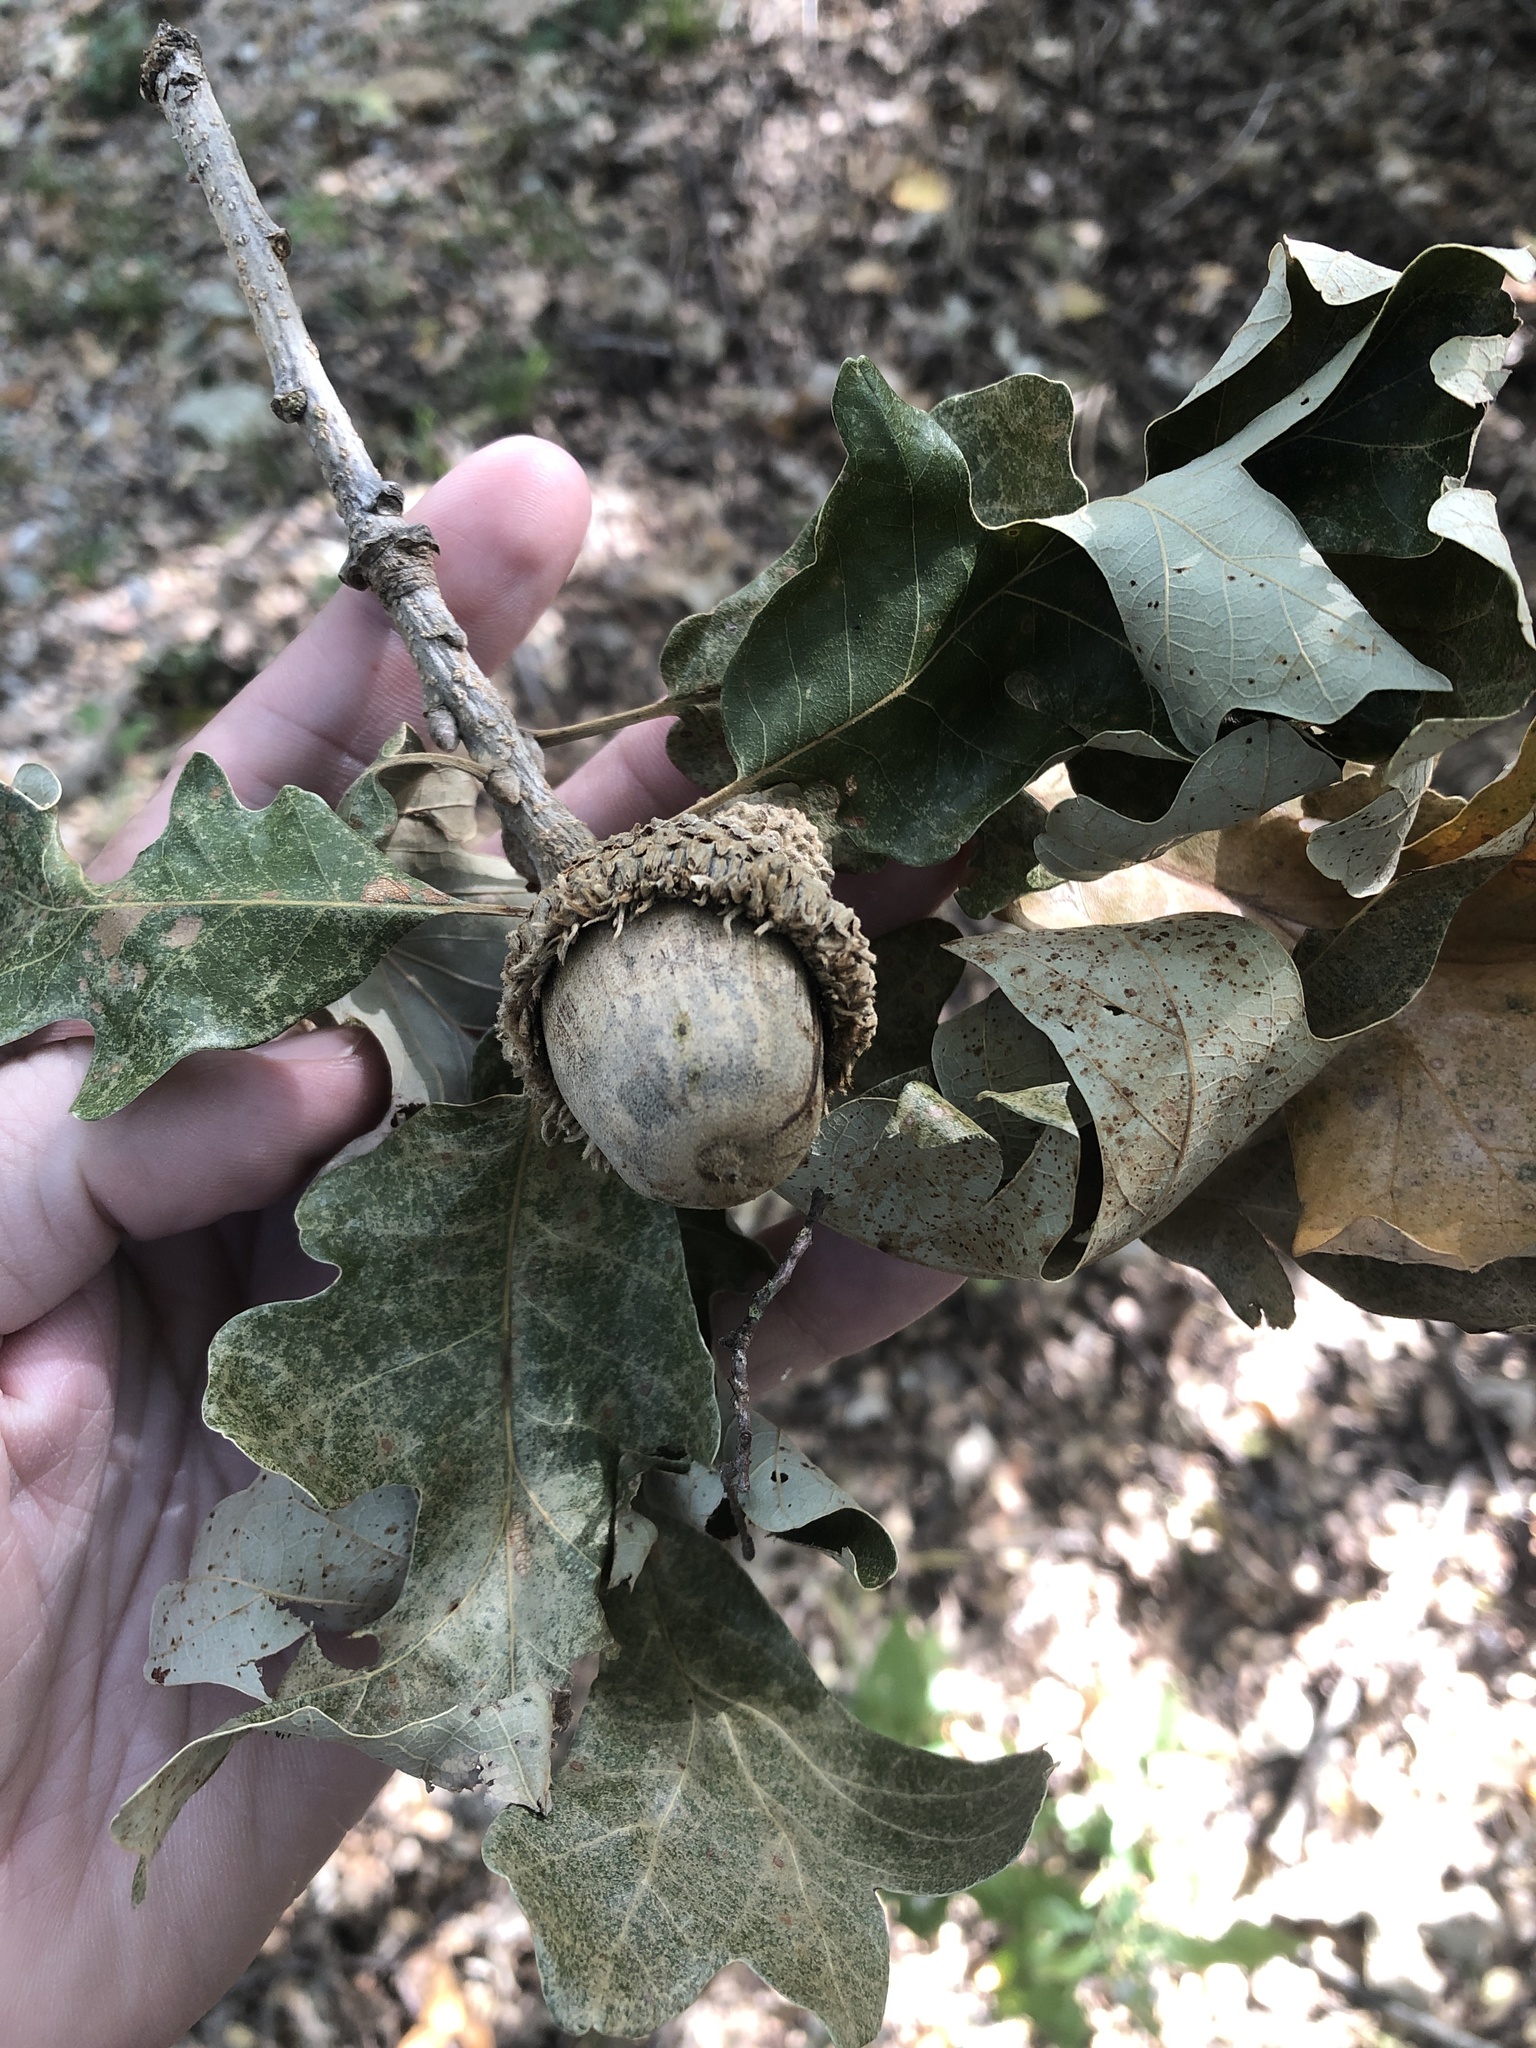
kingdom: Plantae
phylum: Tracheophyta
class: Magnoliopsida
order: Fagales
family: Fagaceae
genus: Quercus
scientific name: Quercus macrocarpa
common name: Bur oak
